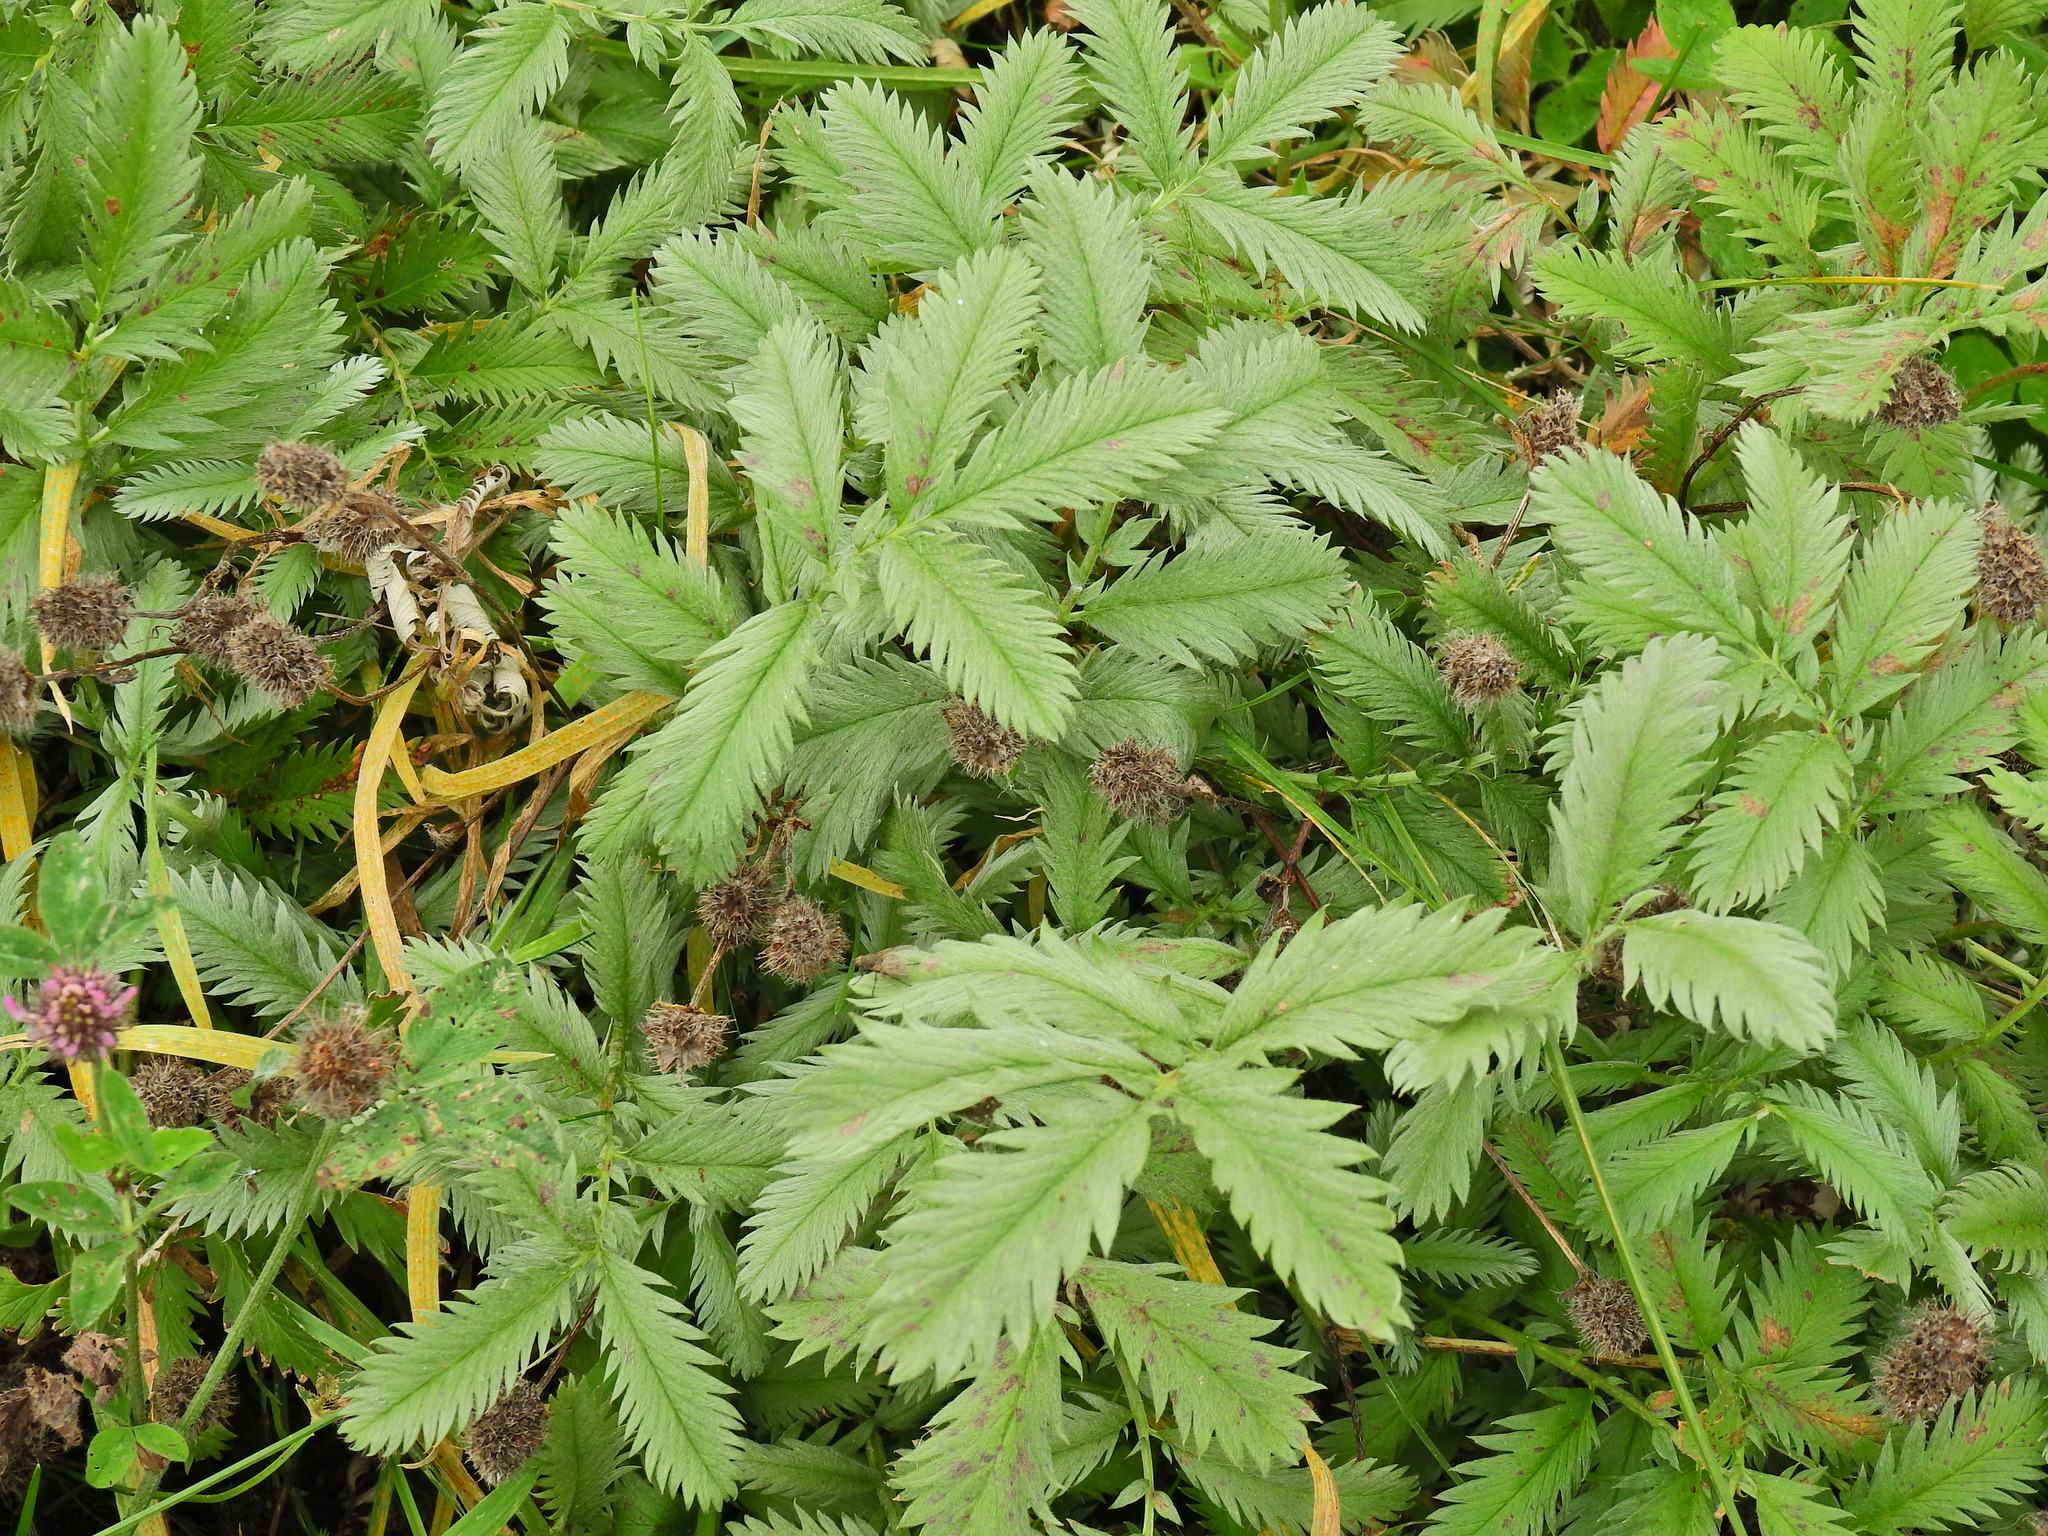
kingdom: Plantae
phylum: Tracheophyta
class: Magnoliopsida
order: Rosales
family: Rosaceae
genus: Argentina
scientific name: Argentina anserina
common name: Common silverweed
